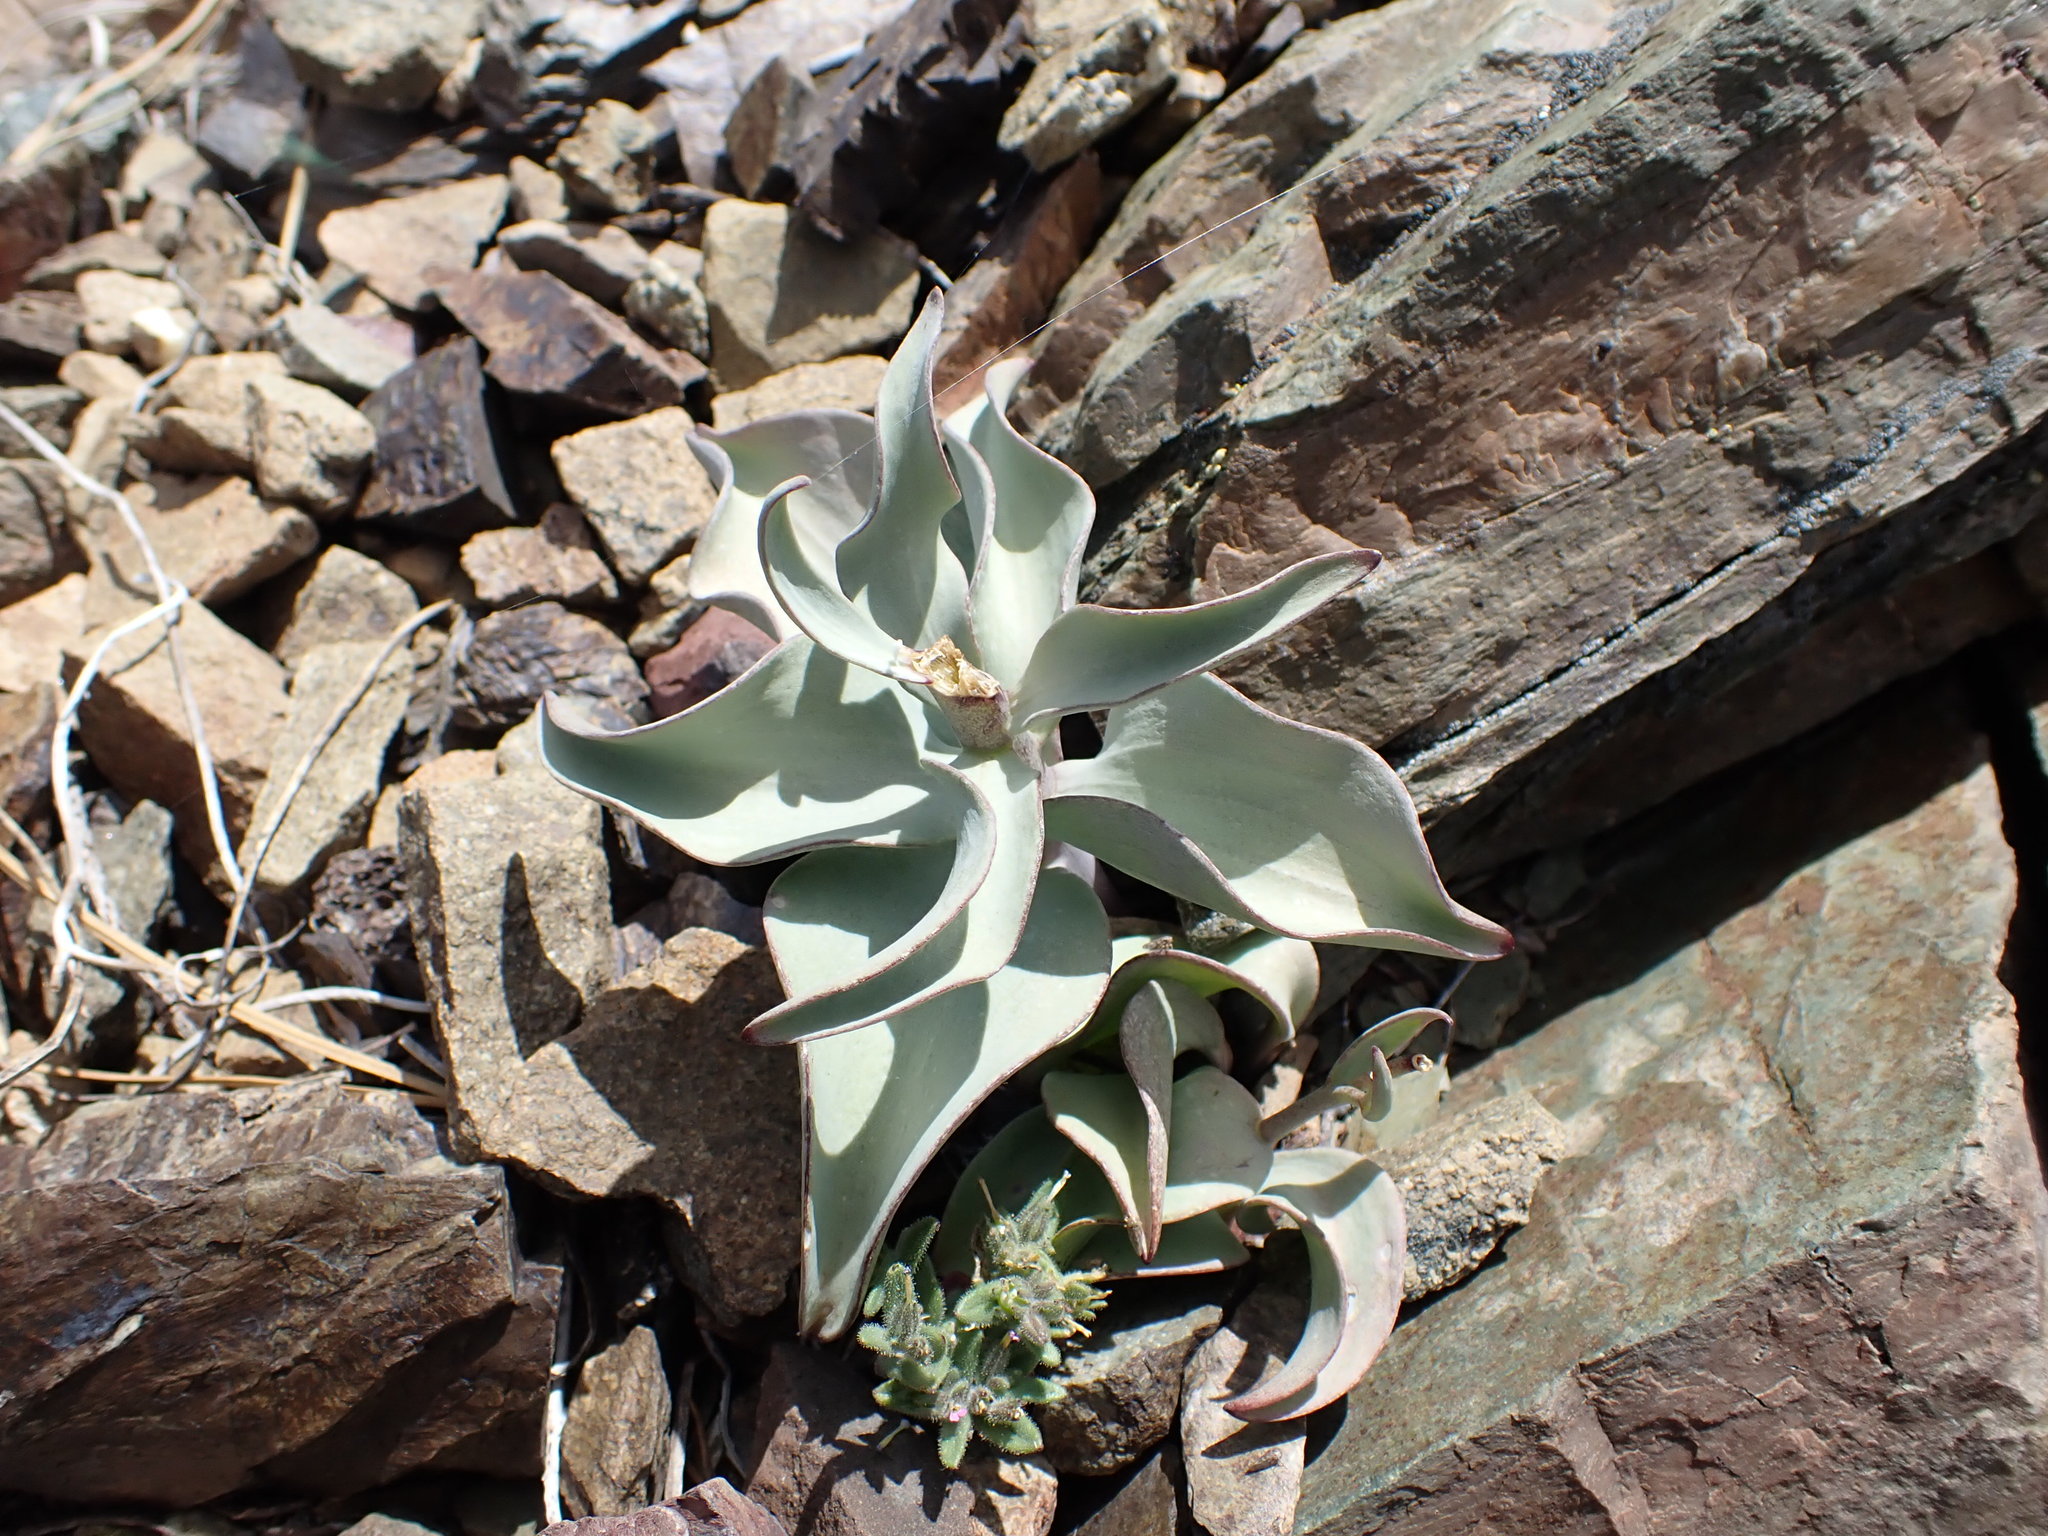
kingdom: Plantae
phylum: Tracheophyta
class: Liliopsida
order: Liliales
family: Liliaceae
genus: Fritillaria
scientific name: Fritillaria glauca
